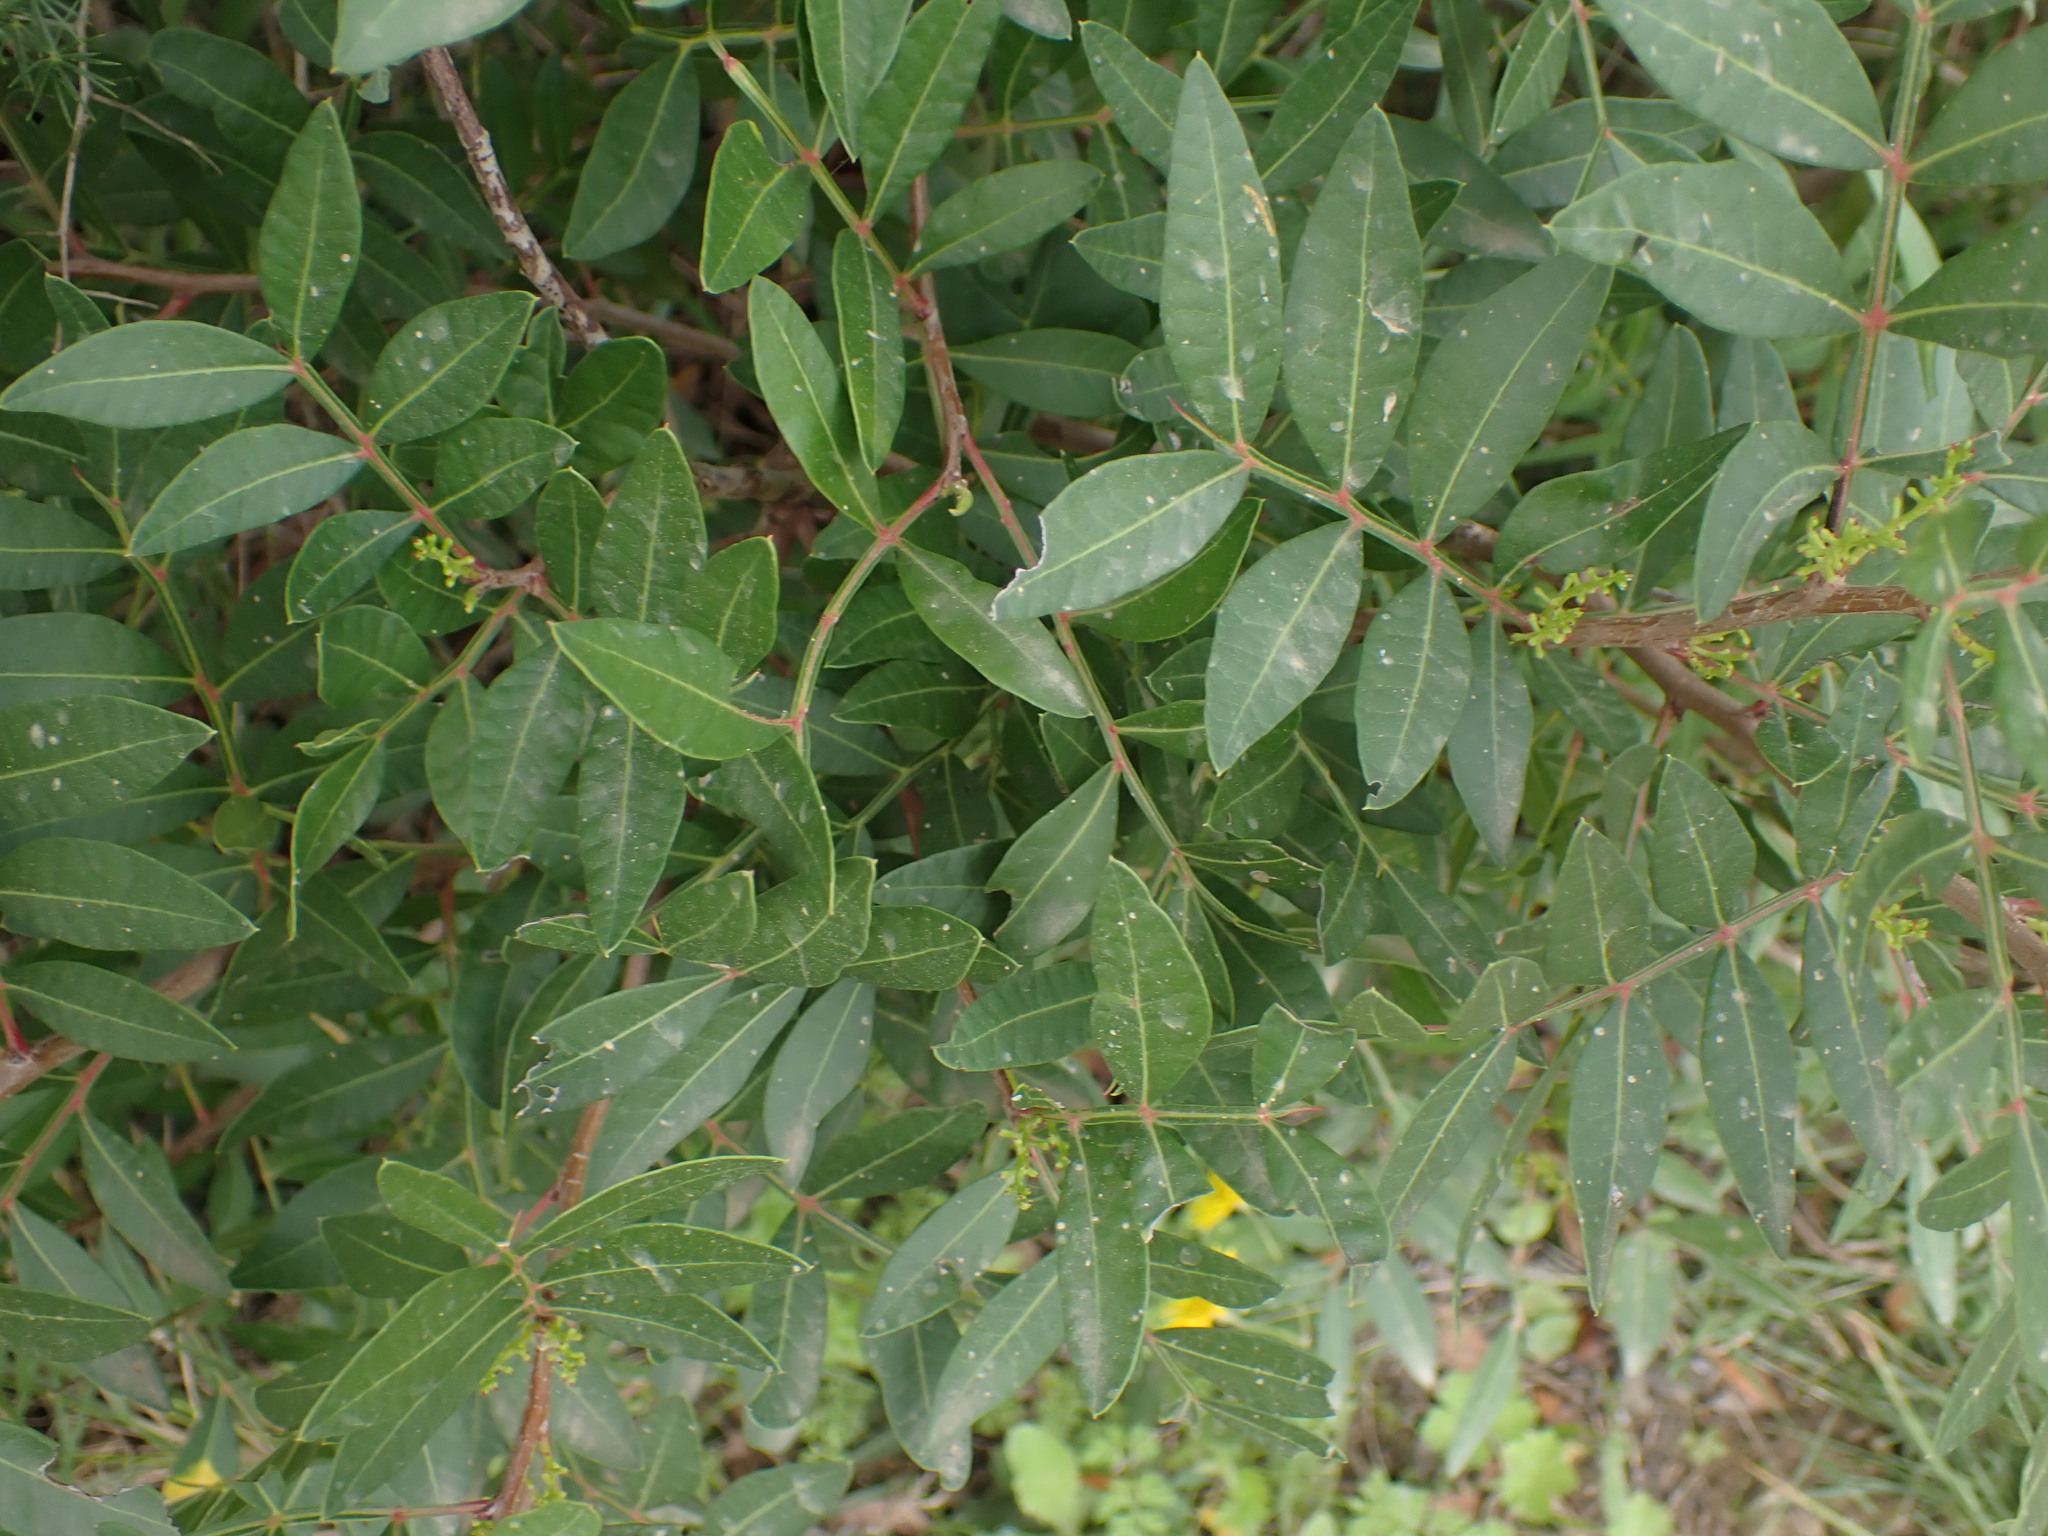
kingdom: Plantae
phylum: Tracheophyta
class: Magnoliopsida
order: Sapindales
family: Anacardiaceae
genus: Pistacia
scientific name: Pistacia lentiscus
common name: Lentisk
